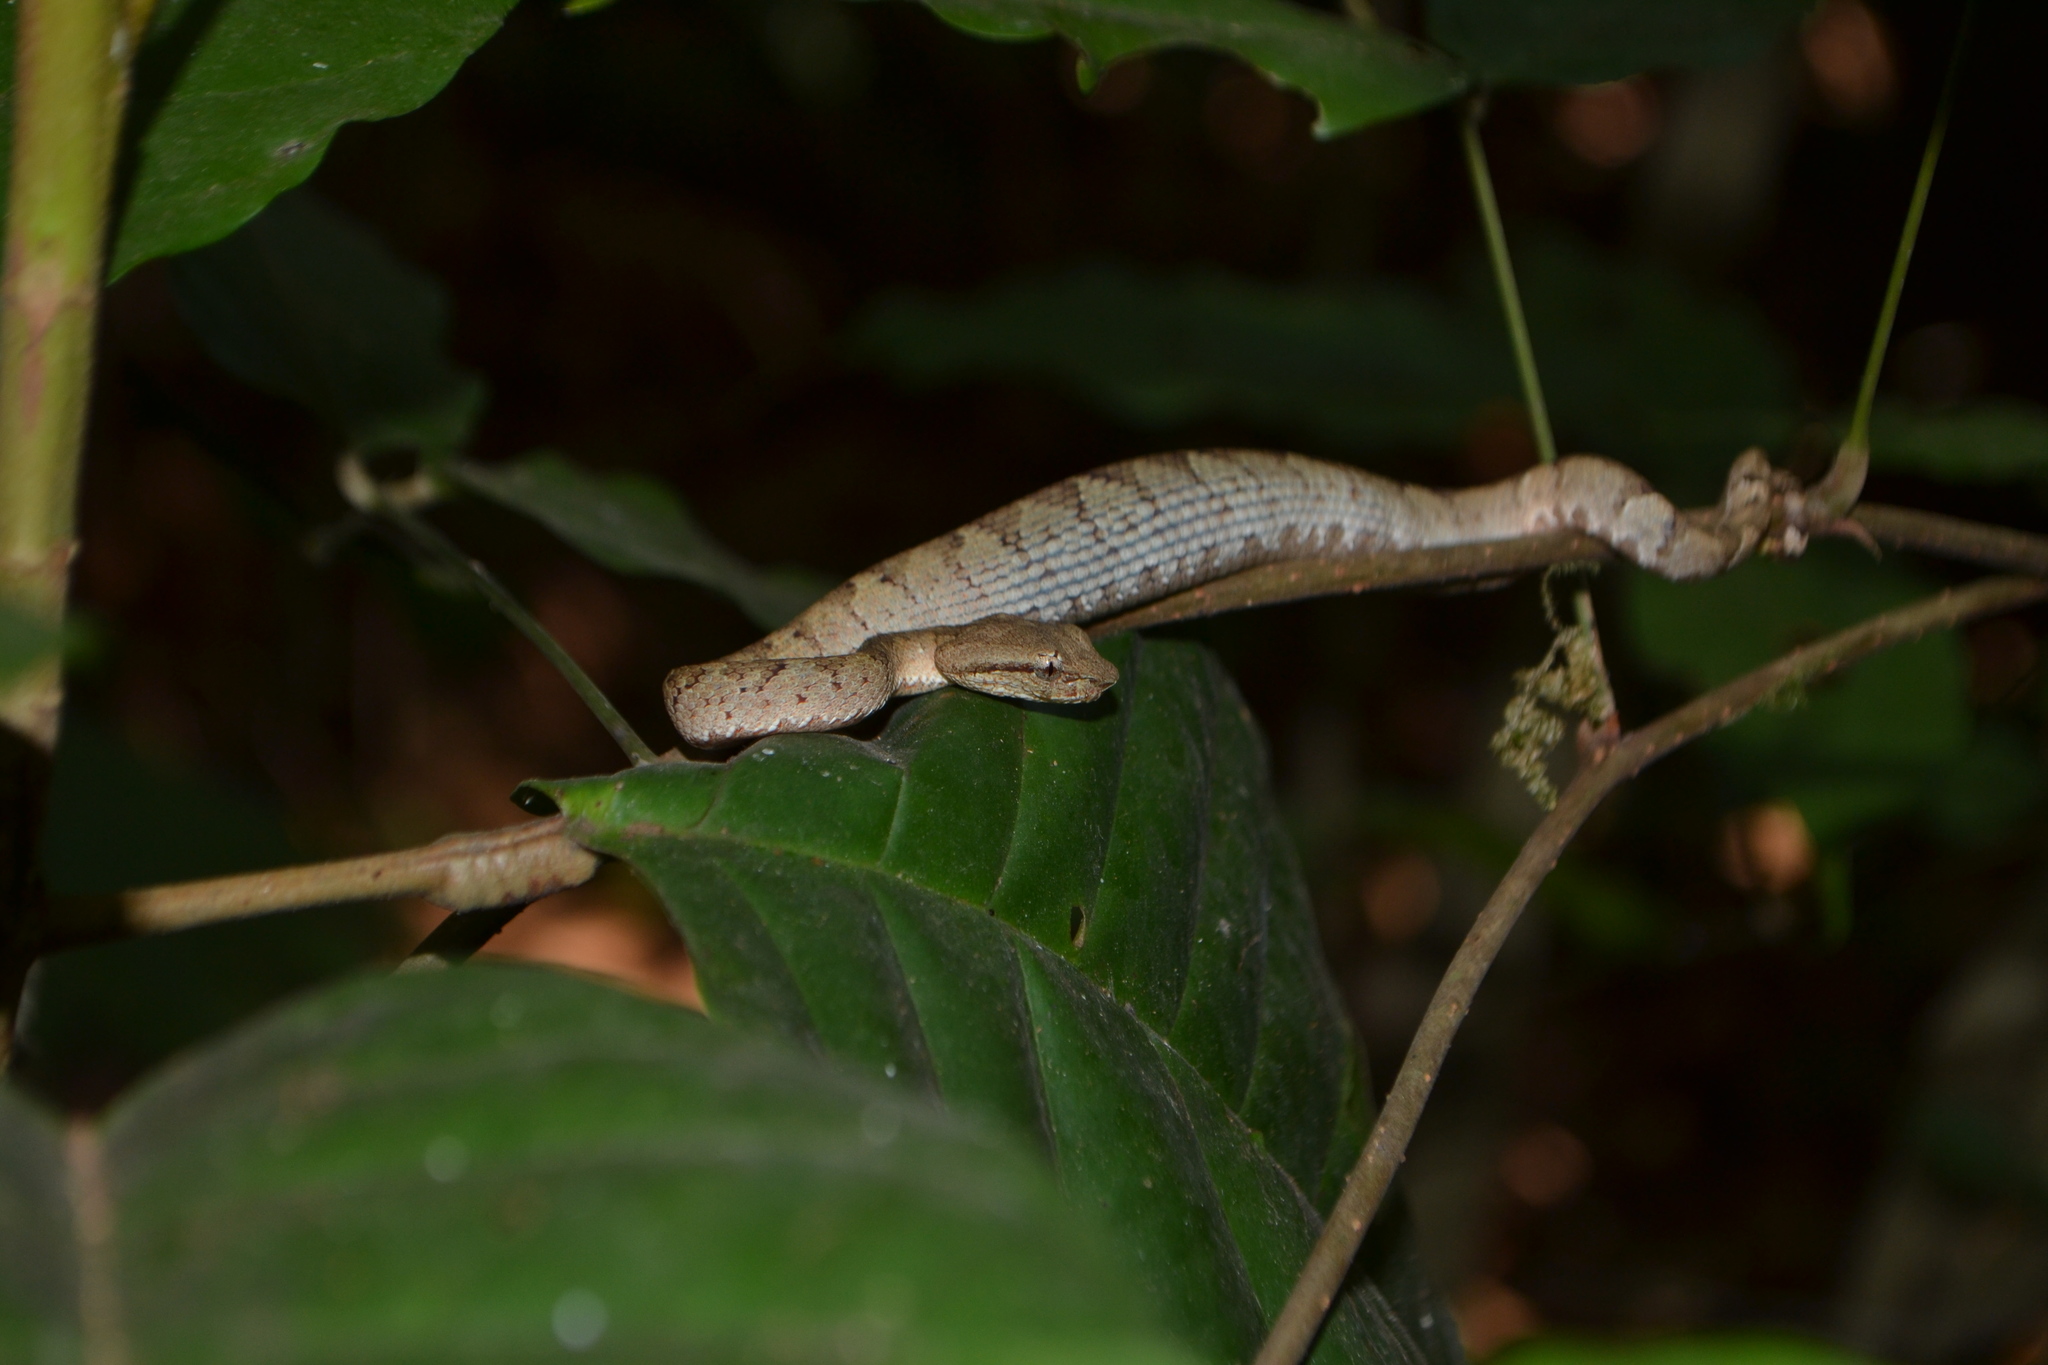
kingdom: Animalia
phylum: Chordata
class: Squamata
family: Viperidae
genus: Craspedocephalus
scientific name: Craspedocephalus malabaricus
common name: Malabarian pit viper
